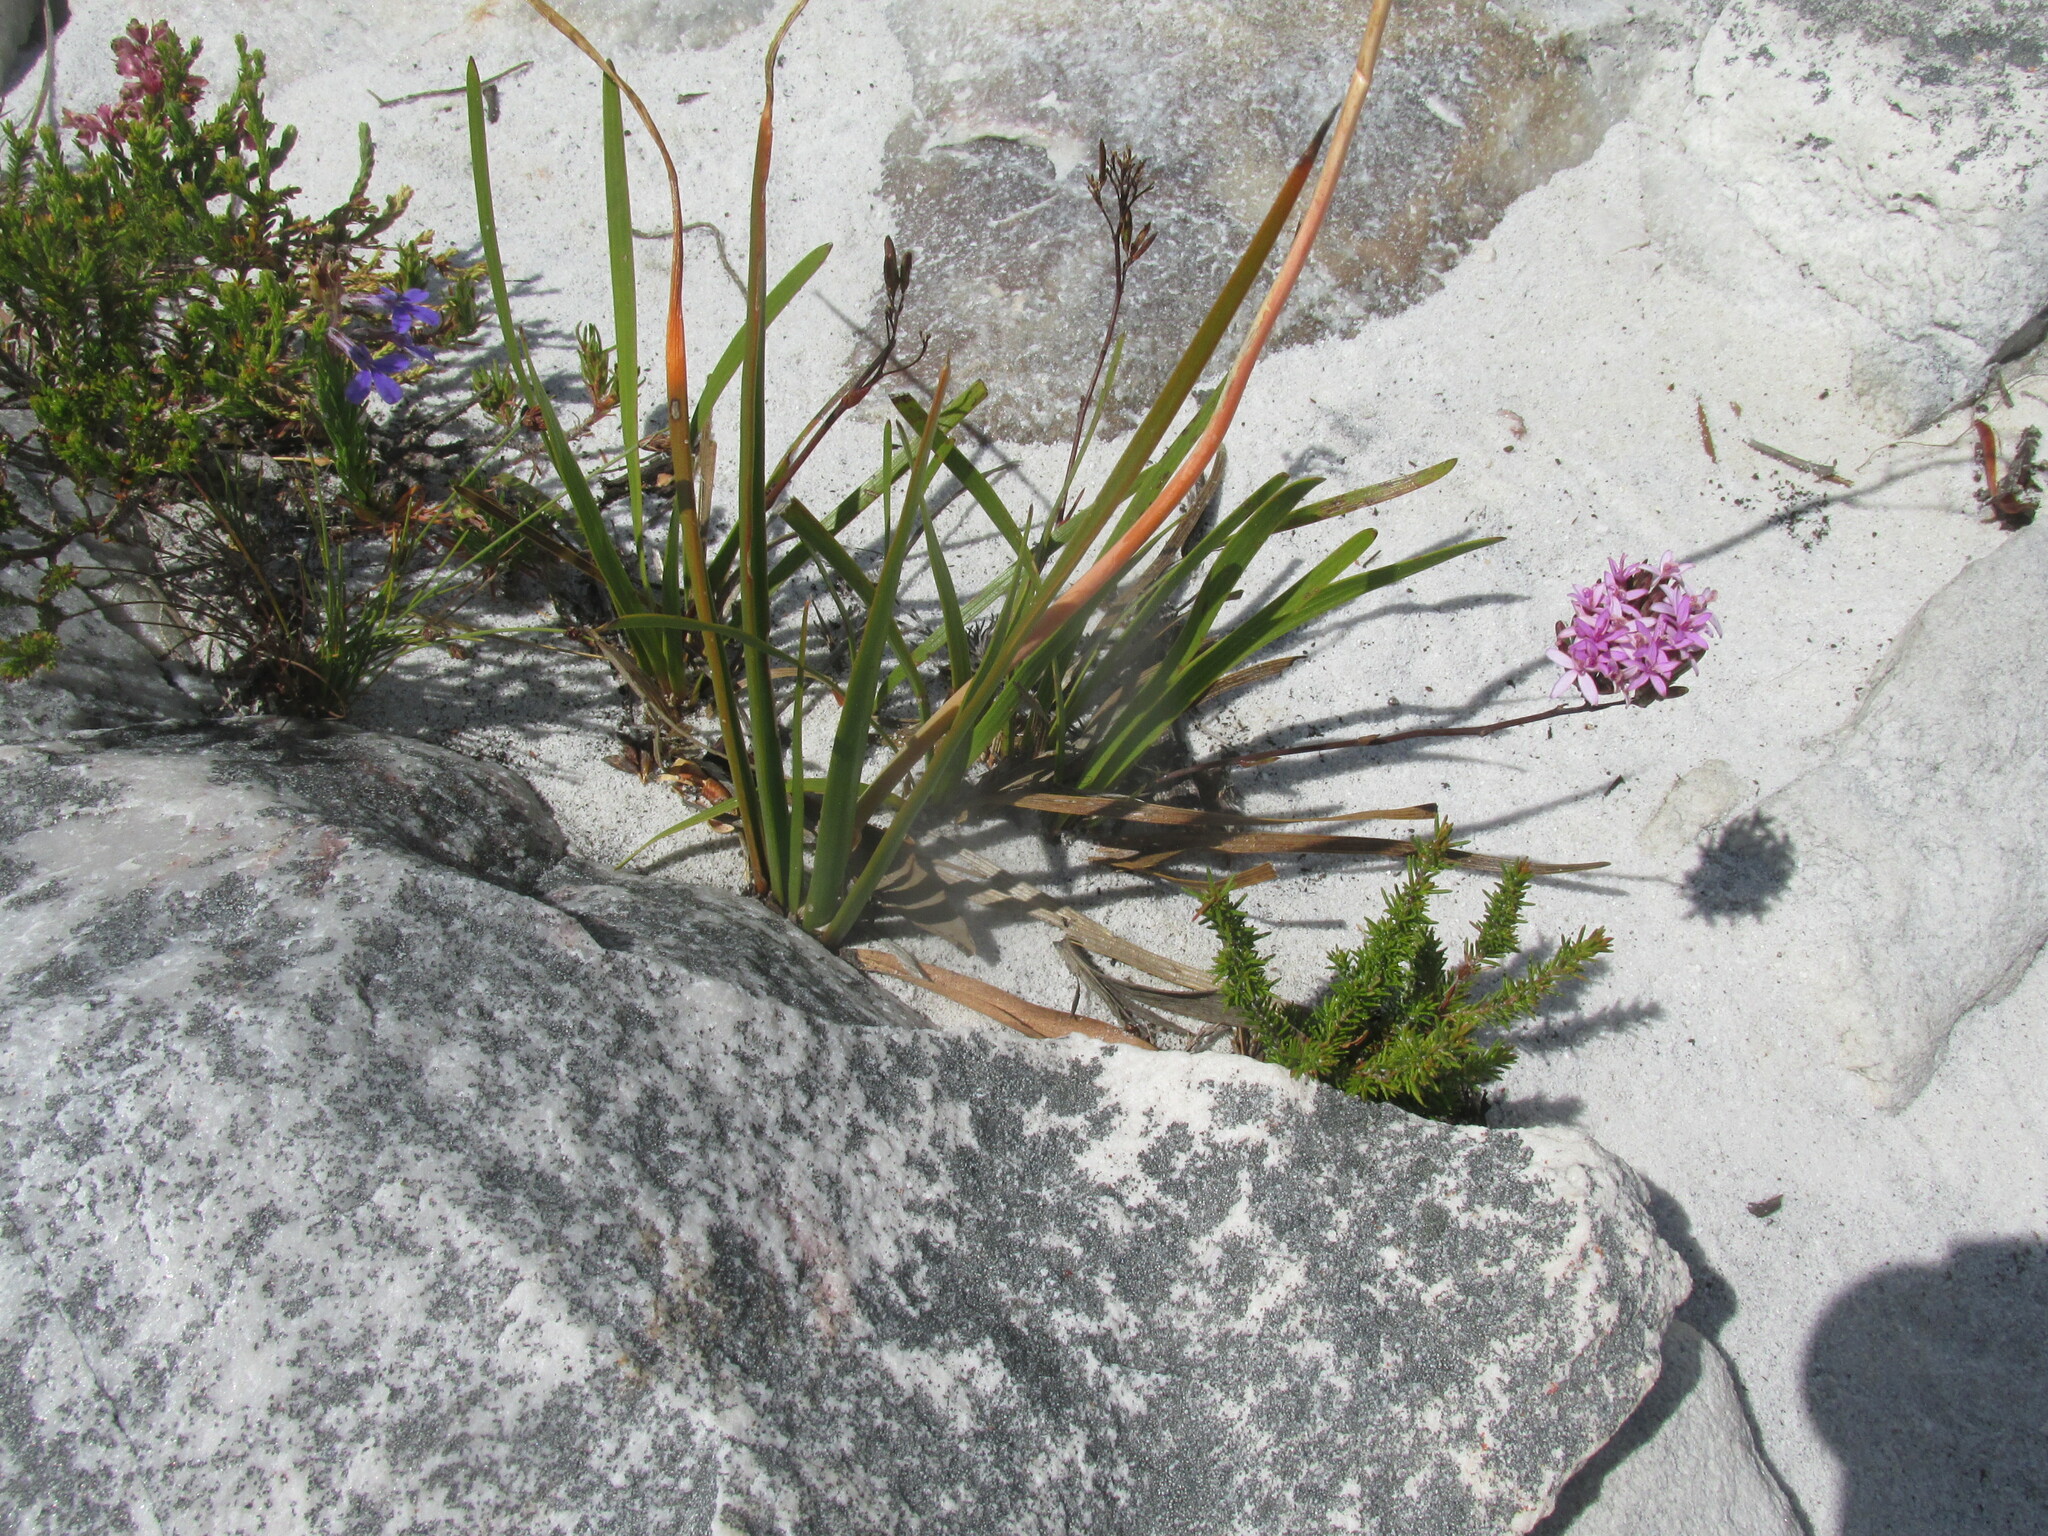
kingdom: Plantae
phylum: Tracheophyta
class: Magnoliopsida
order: Asterales
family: Asteraceae
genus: Corymbium
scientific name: Corymbium glabrum
